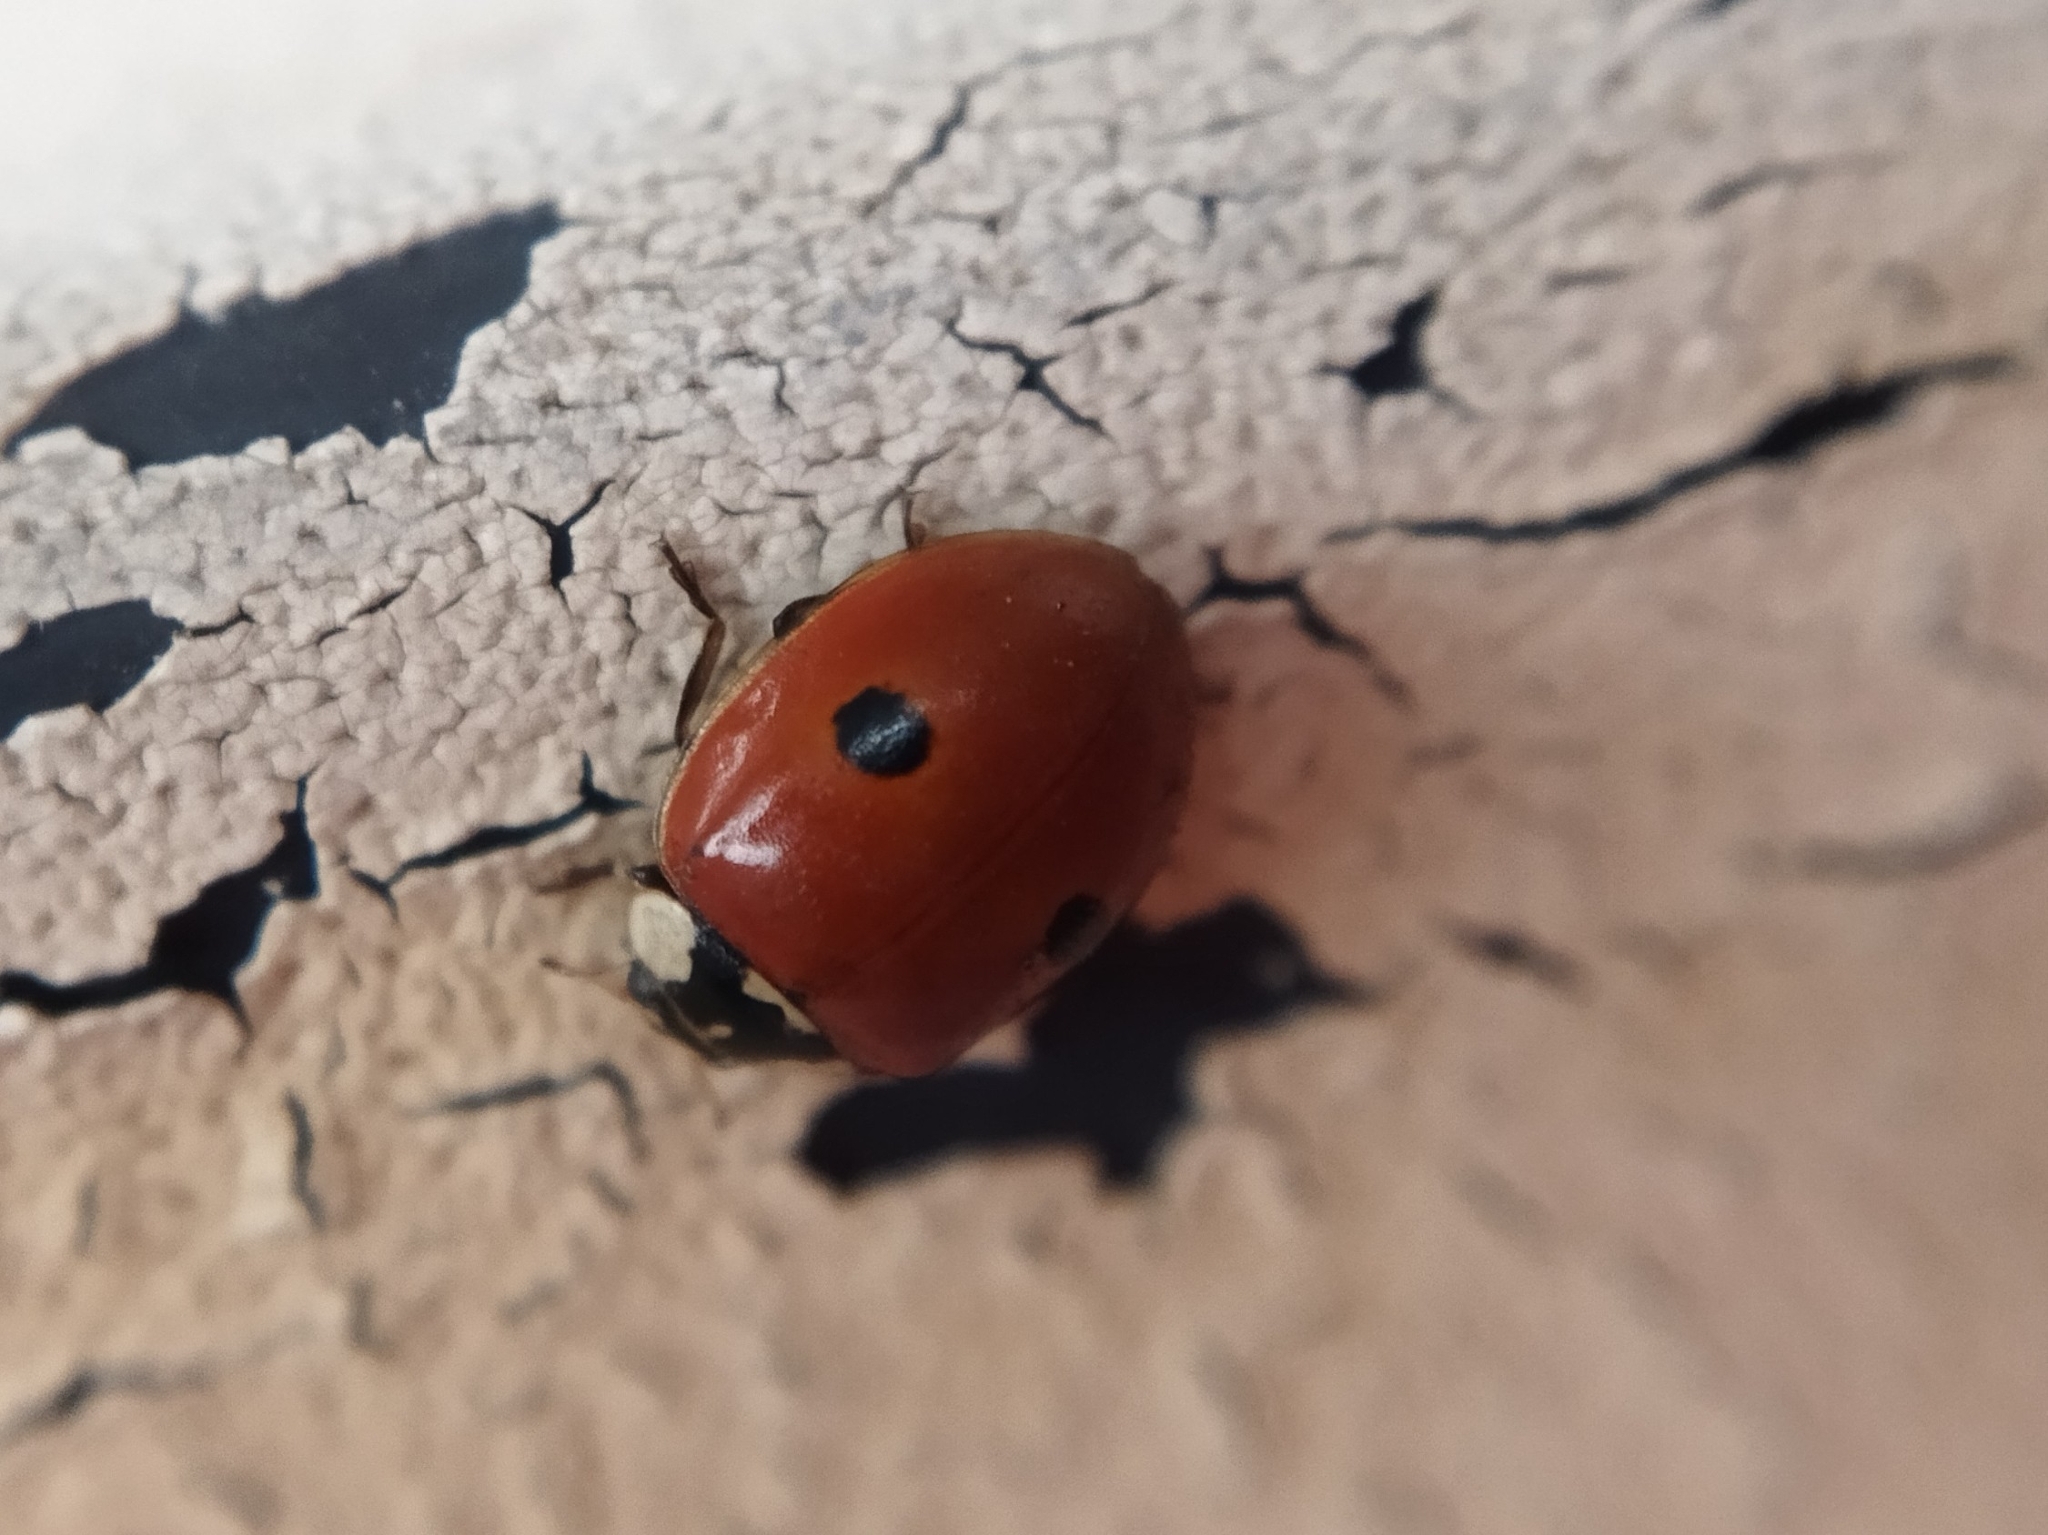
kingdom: Animalia
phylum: Arthropoda
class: Insecta
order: Coleoptera
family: Coccinellidae
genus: Adalia
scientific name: Adalia bipunctata
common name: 2-spot ladybird
